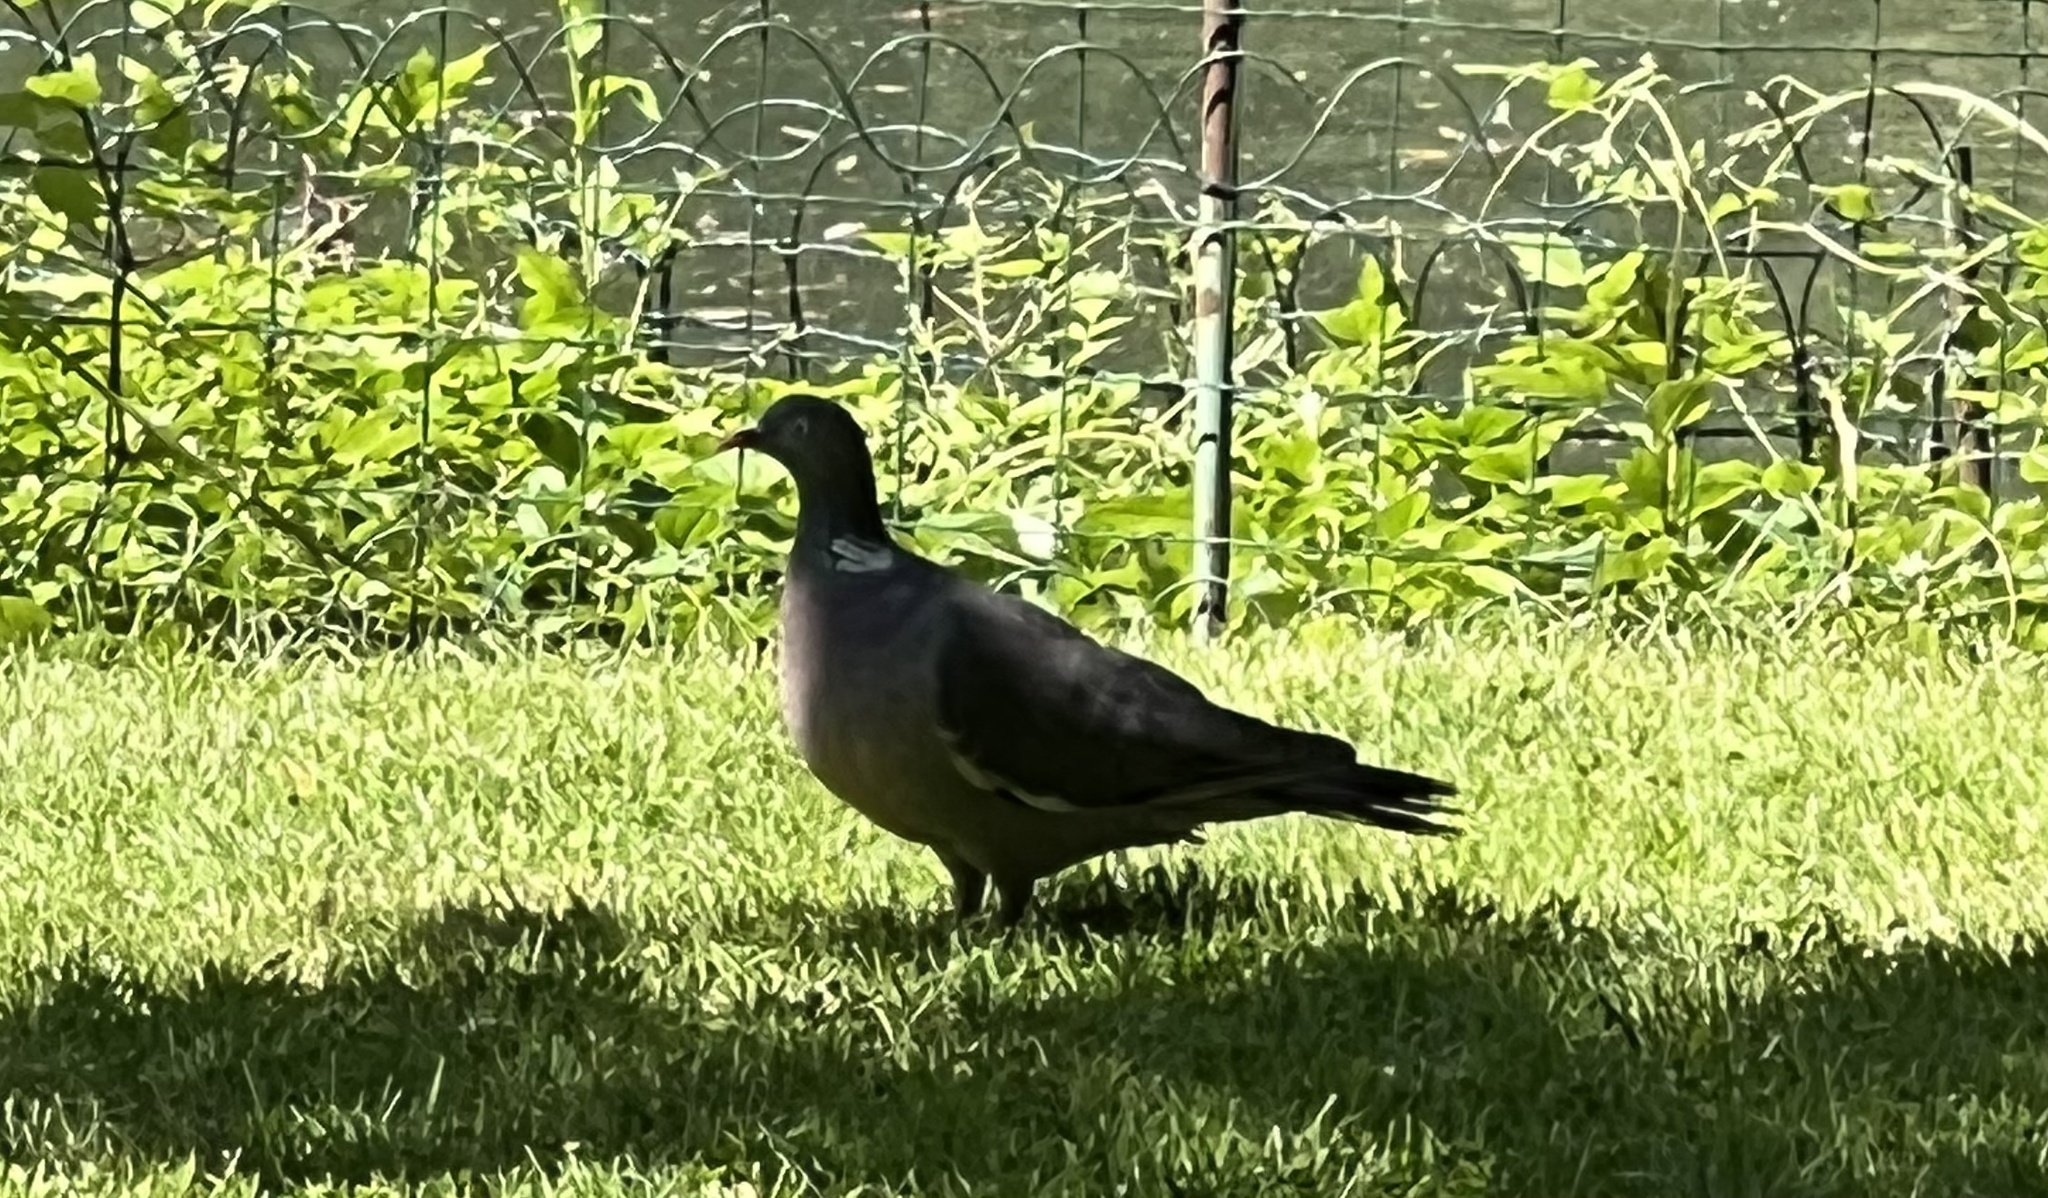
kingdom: Animalia
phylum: Chordata
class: Aves
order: Columbiformes
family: Columbidae
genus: Columba
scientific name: Columba palumbus
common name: Common wood pigeon
